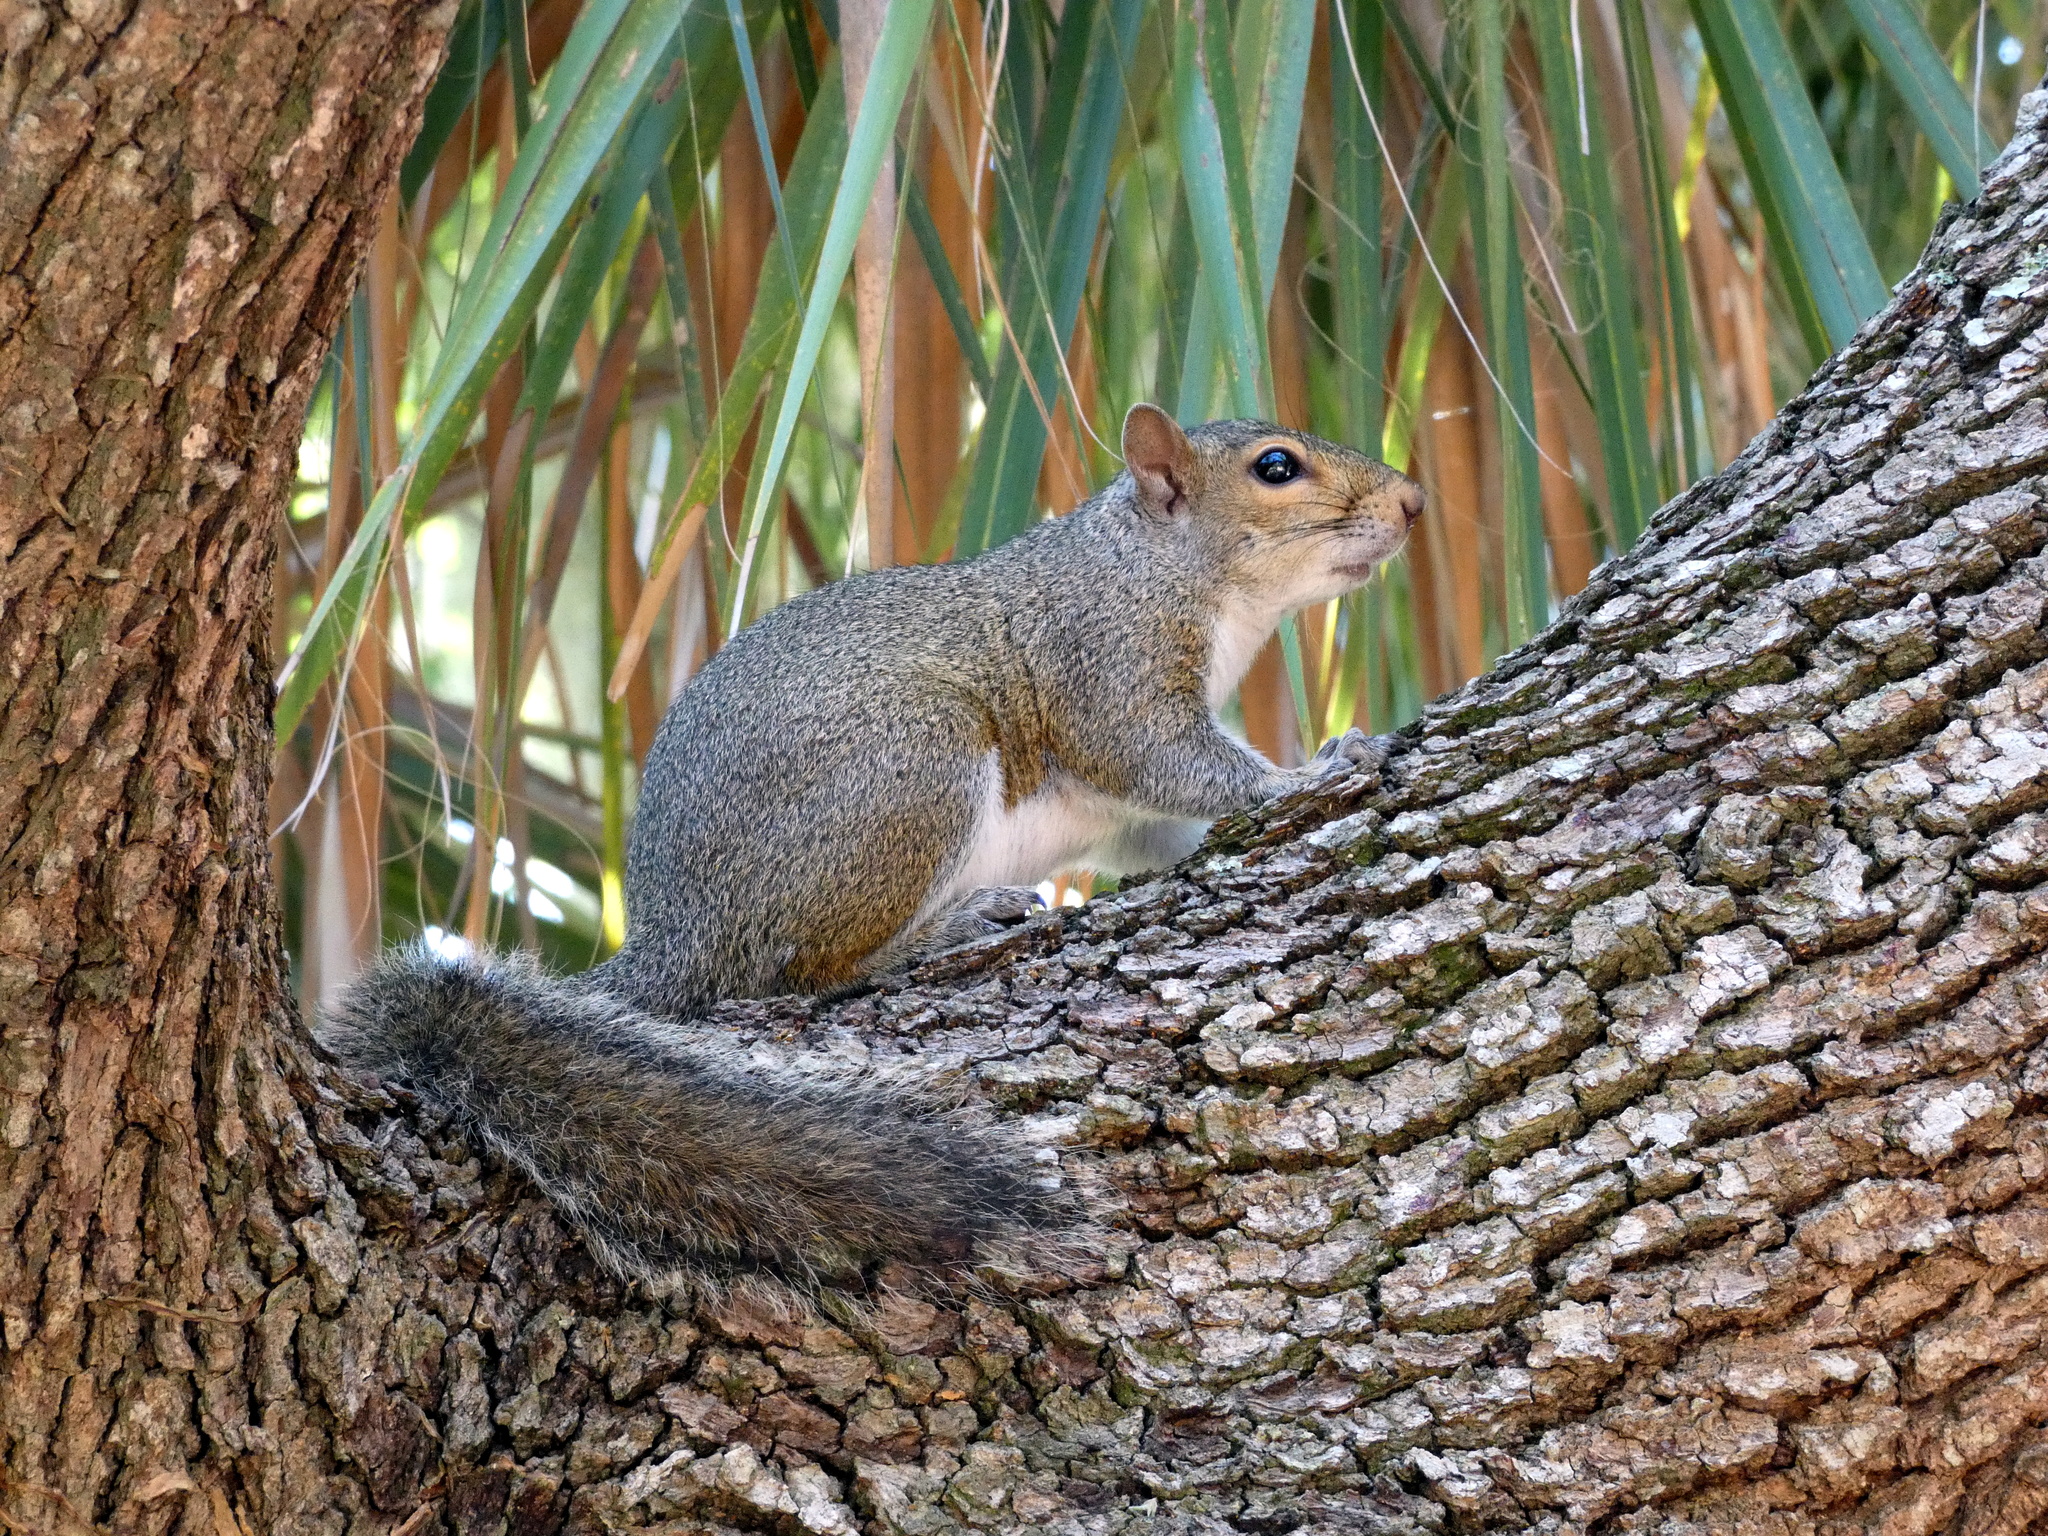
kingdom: Animalia
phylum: Chordata
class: Mammalia
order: Rodentia
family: Sciuridae
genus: Sciurus
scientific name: Sciurus carolinensis
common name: Eastern gray squirrel
